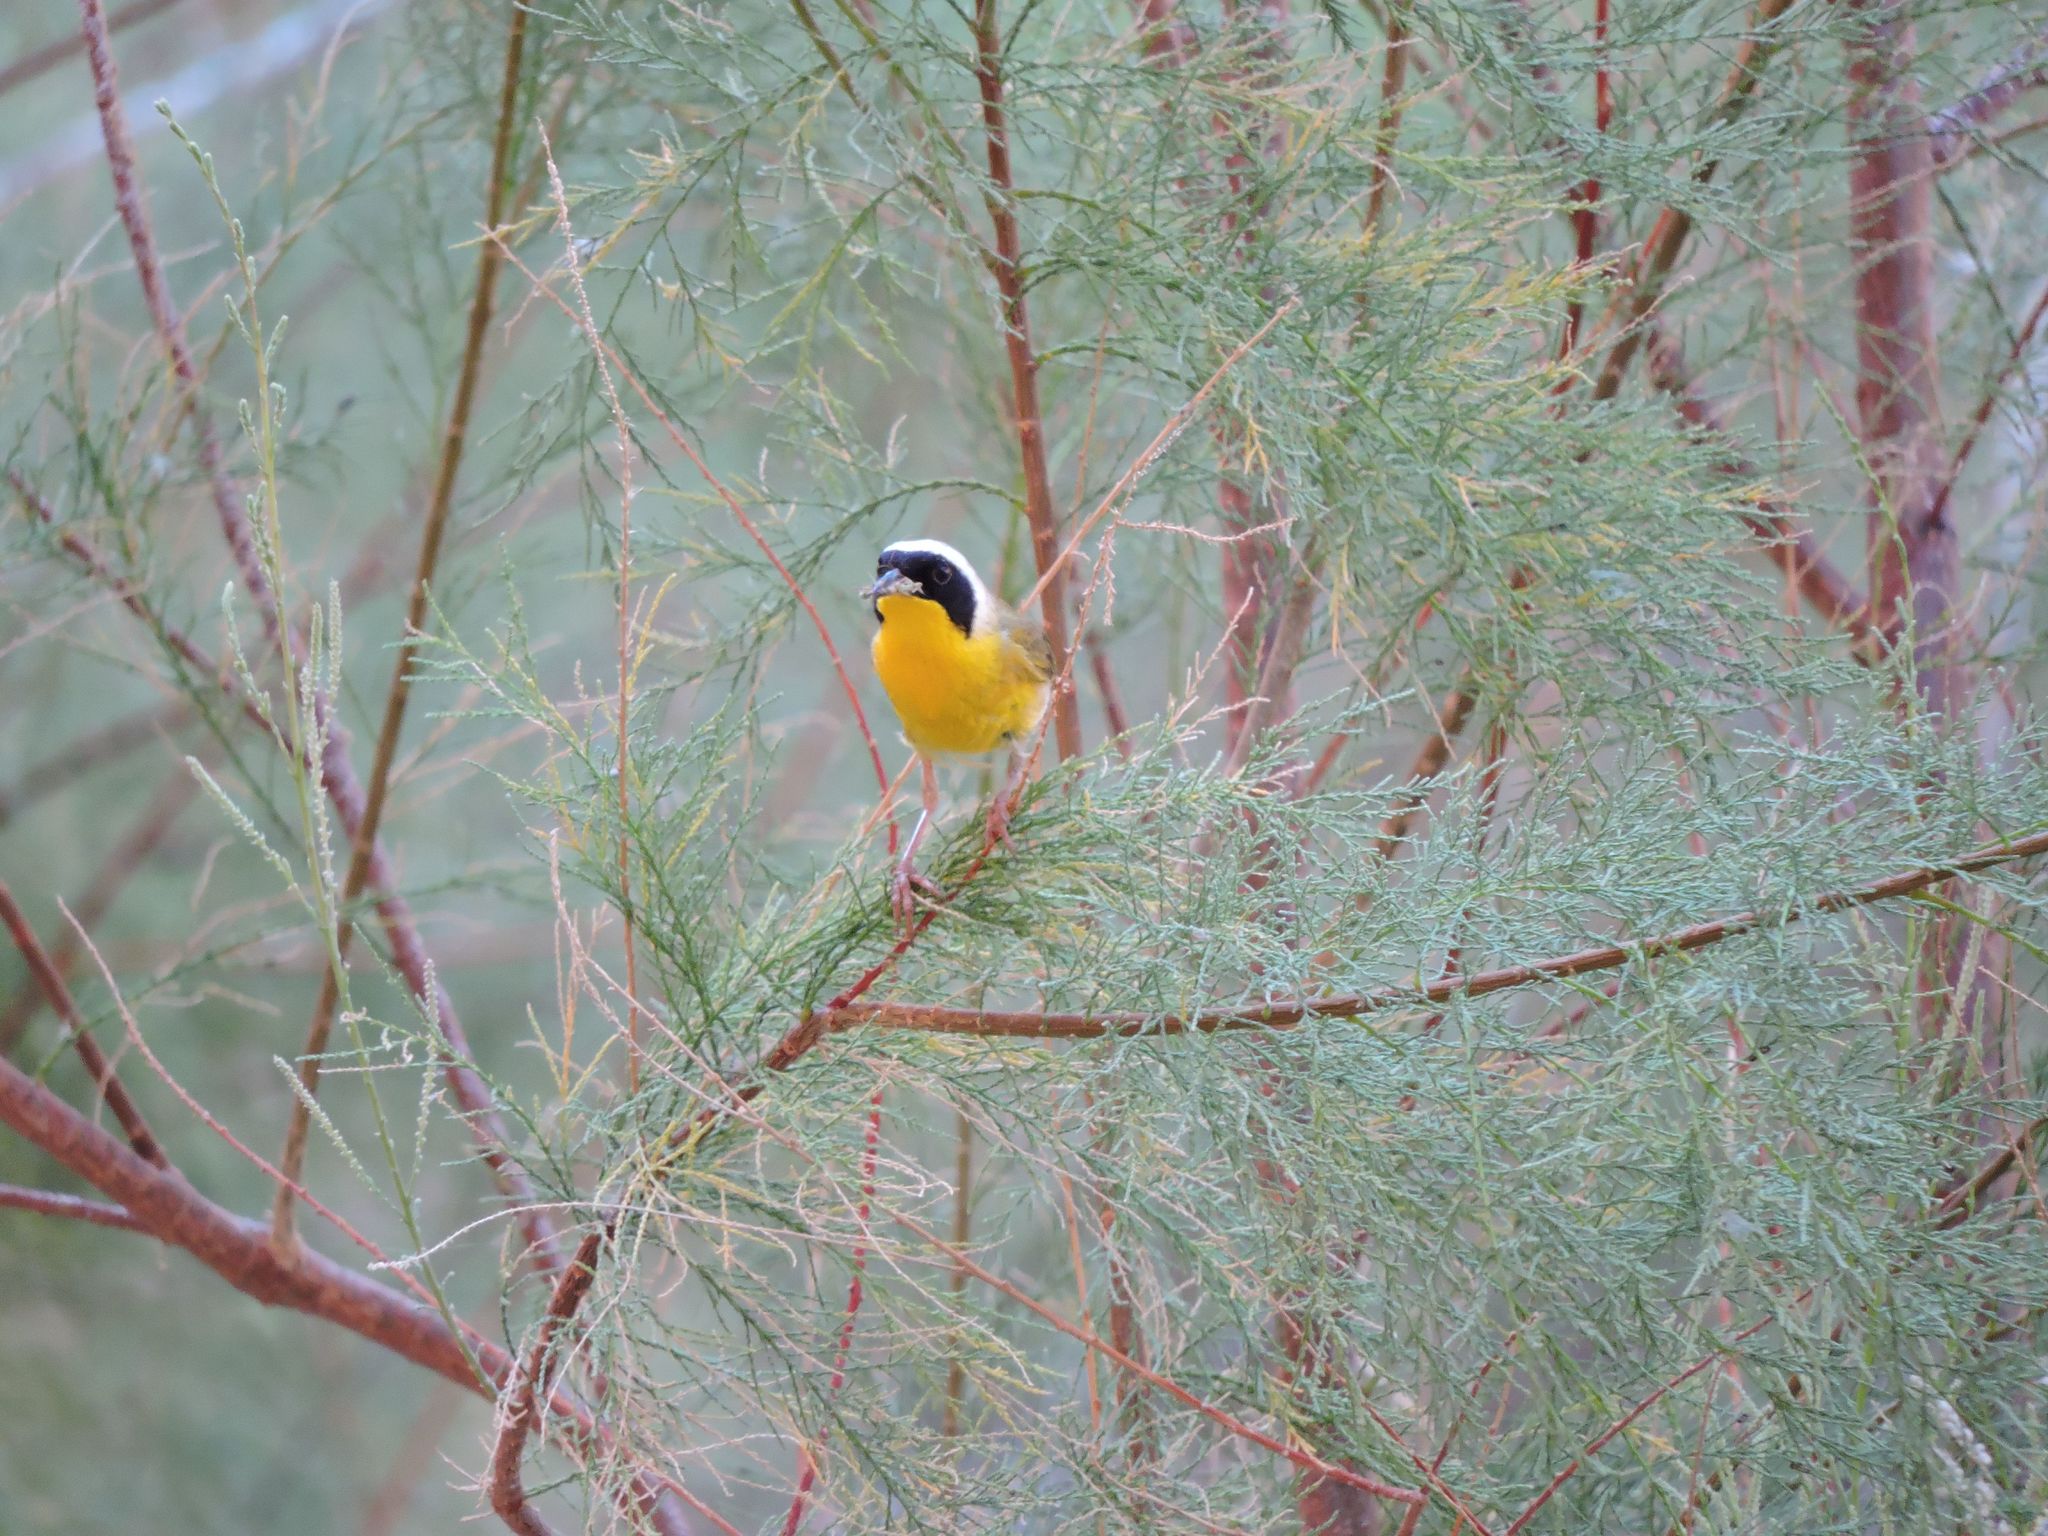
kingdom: Animalia
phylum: Chordata
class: Aves
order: Passeriformes
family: Parulidae
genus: Geothlypis
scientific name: Geothlypis trichas
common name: Common yellowthroat
